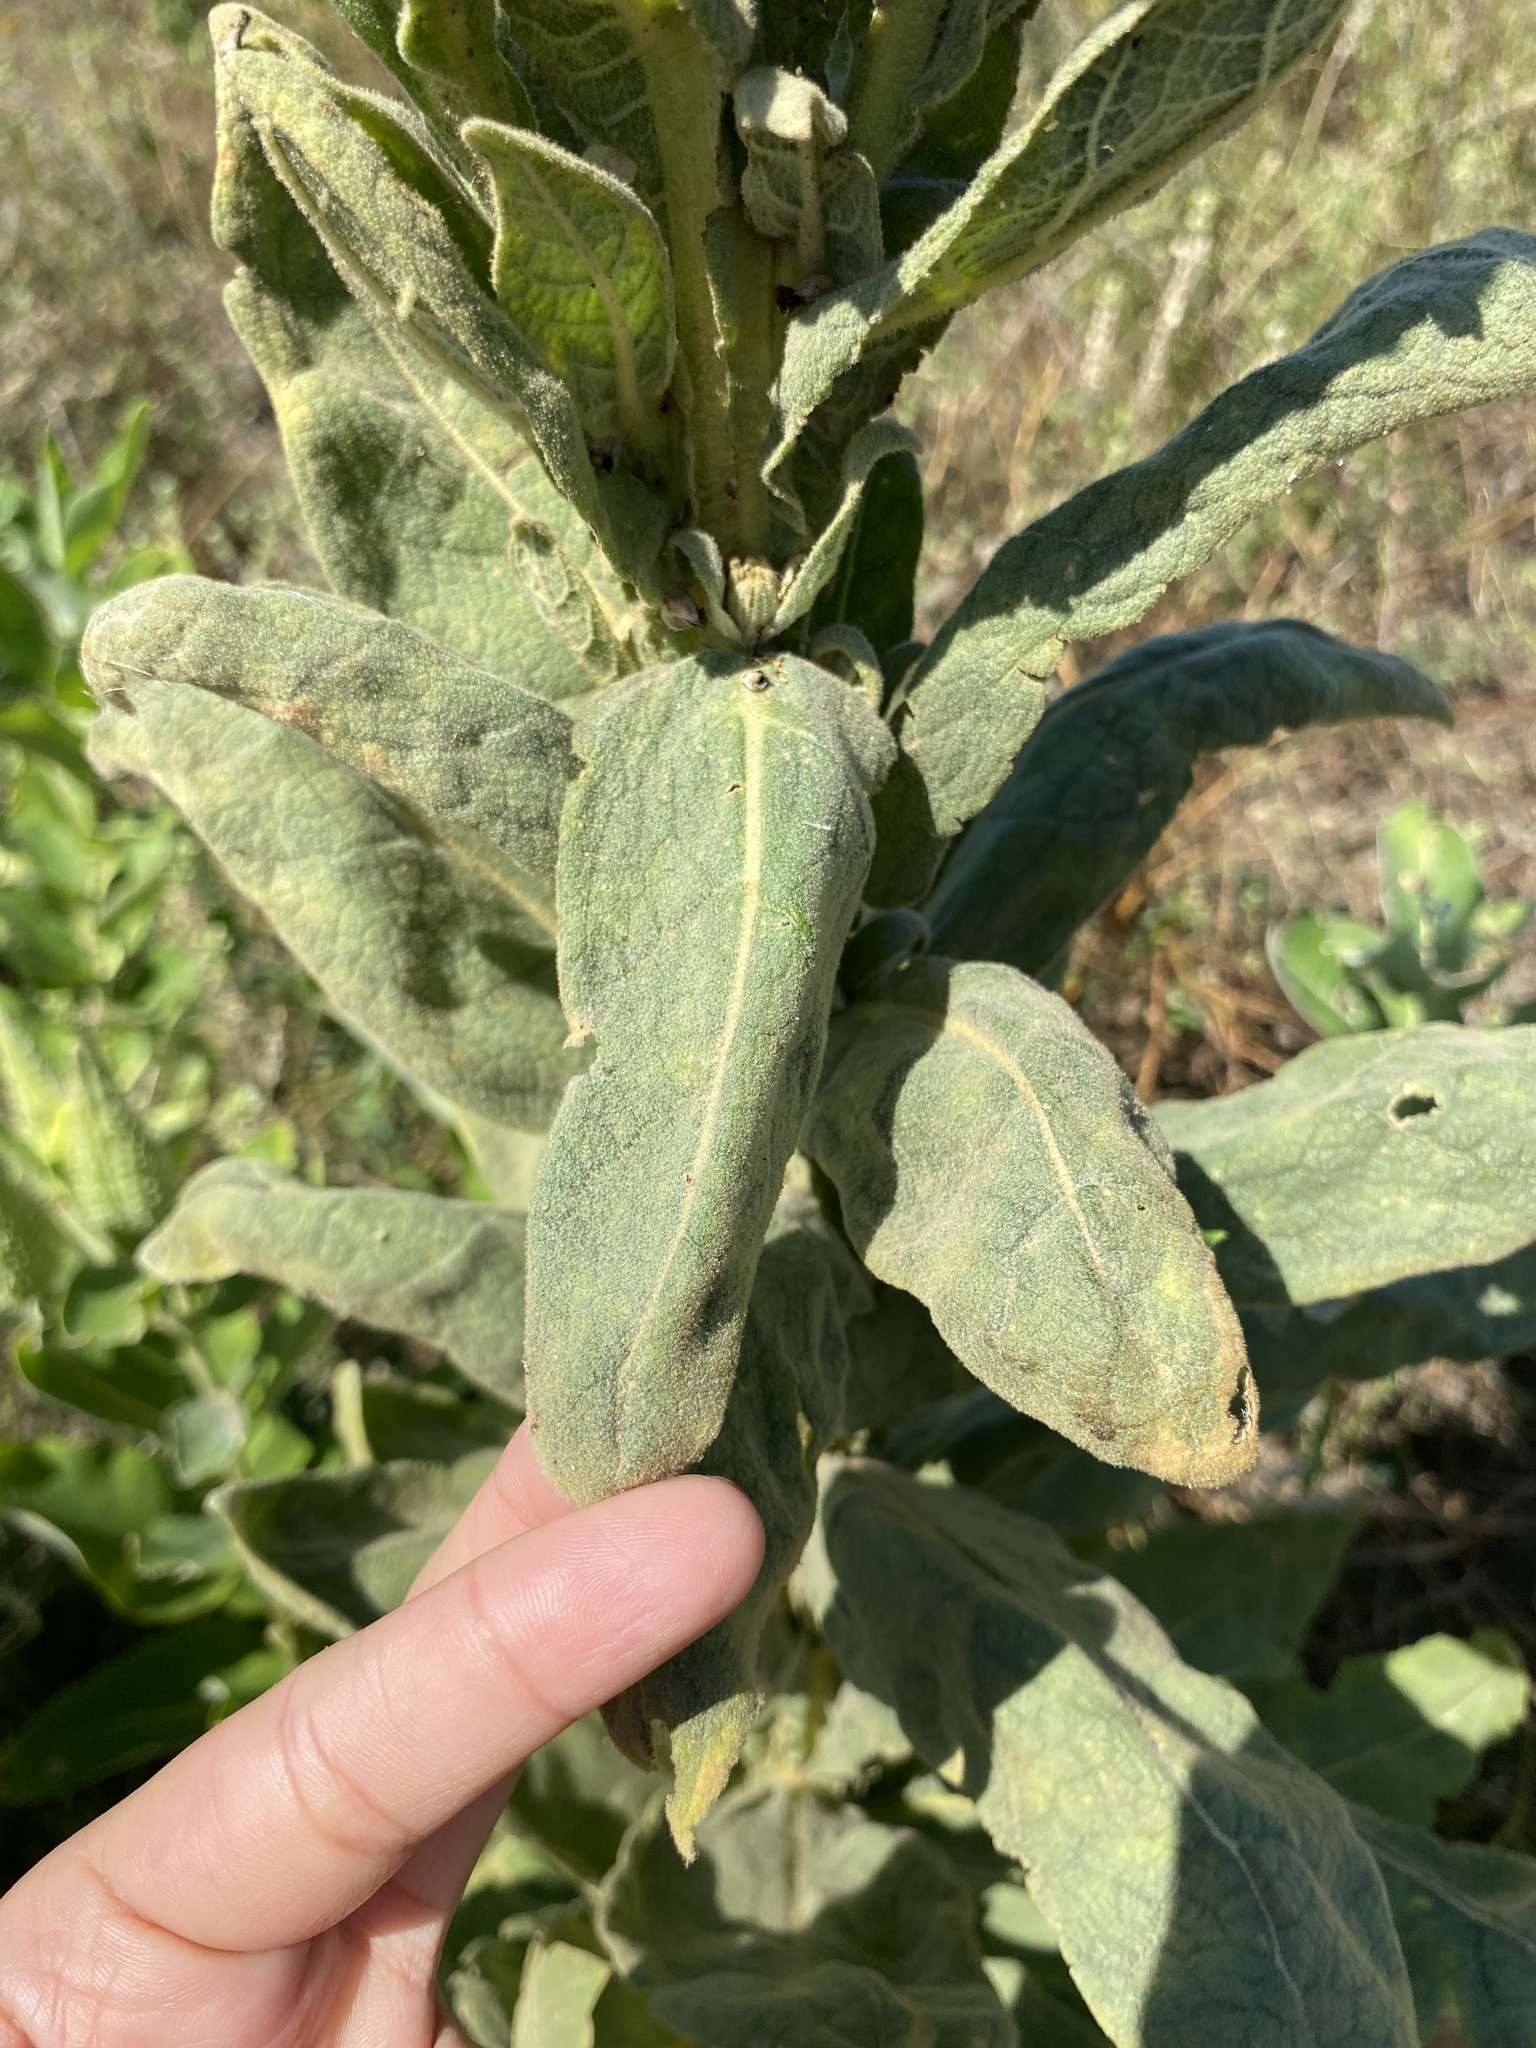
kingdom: Plantae
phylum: Tracheophyta
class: Magnoliopsida
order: Lamiales
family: Scrophulariaceae
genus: Verbascum
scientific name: Verbascum thapsus
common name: Common mullein
